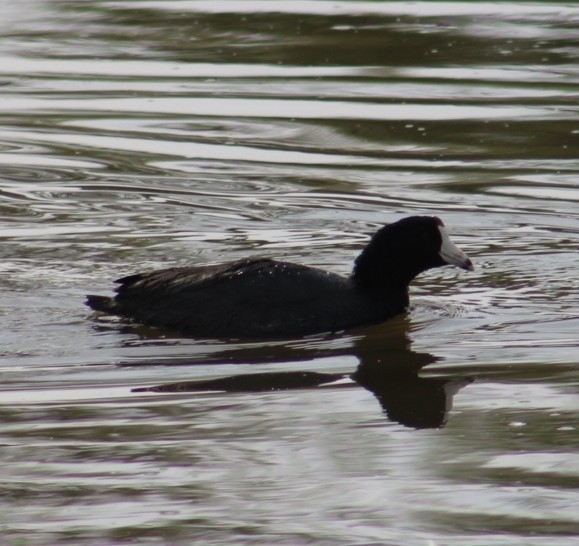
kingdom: Animalia
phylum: Chordata
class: Aves
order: Gruiformes
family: Rallidae
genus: Fulica
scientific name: Fulica americana
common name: American coot
